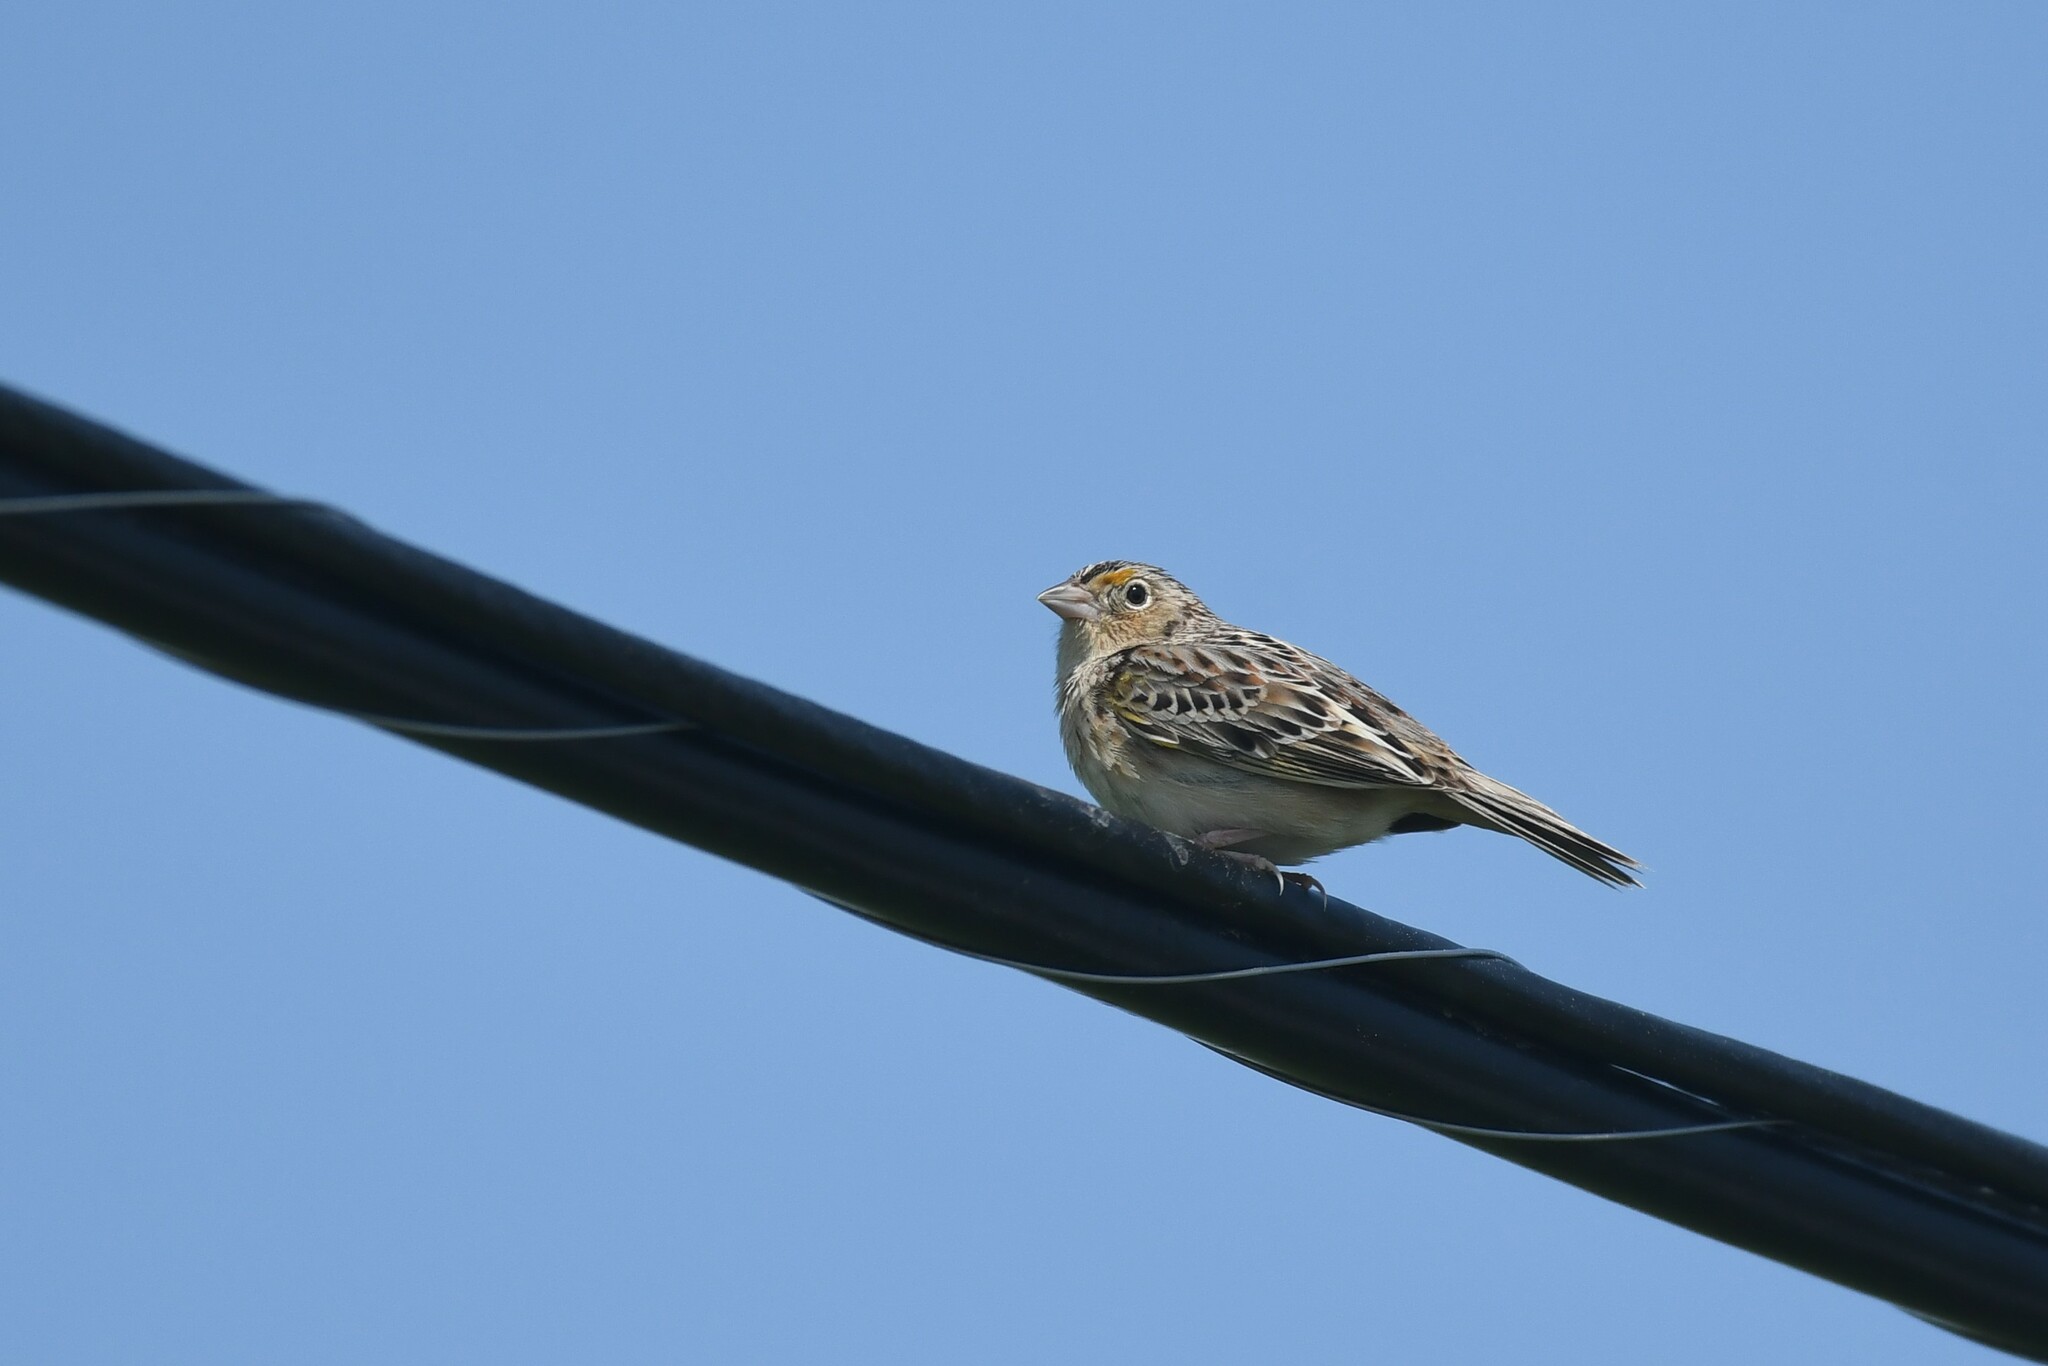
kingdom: Animalia
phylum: Chordata
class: Aves
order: Passeriformes
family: Passerellidae
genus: Ammodramus
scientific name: Ammodramus savannarum
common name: Grasshopper sparrow
